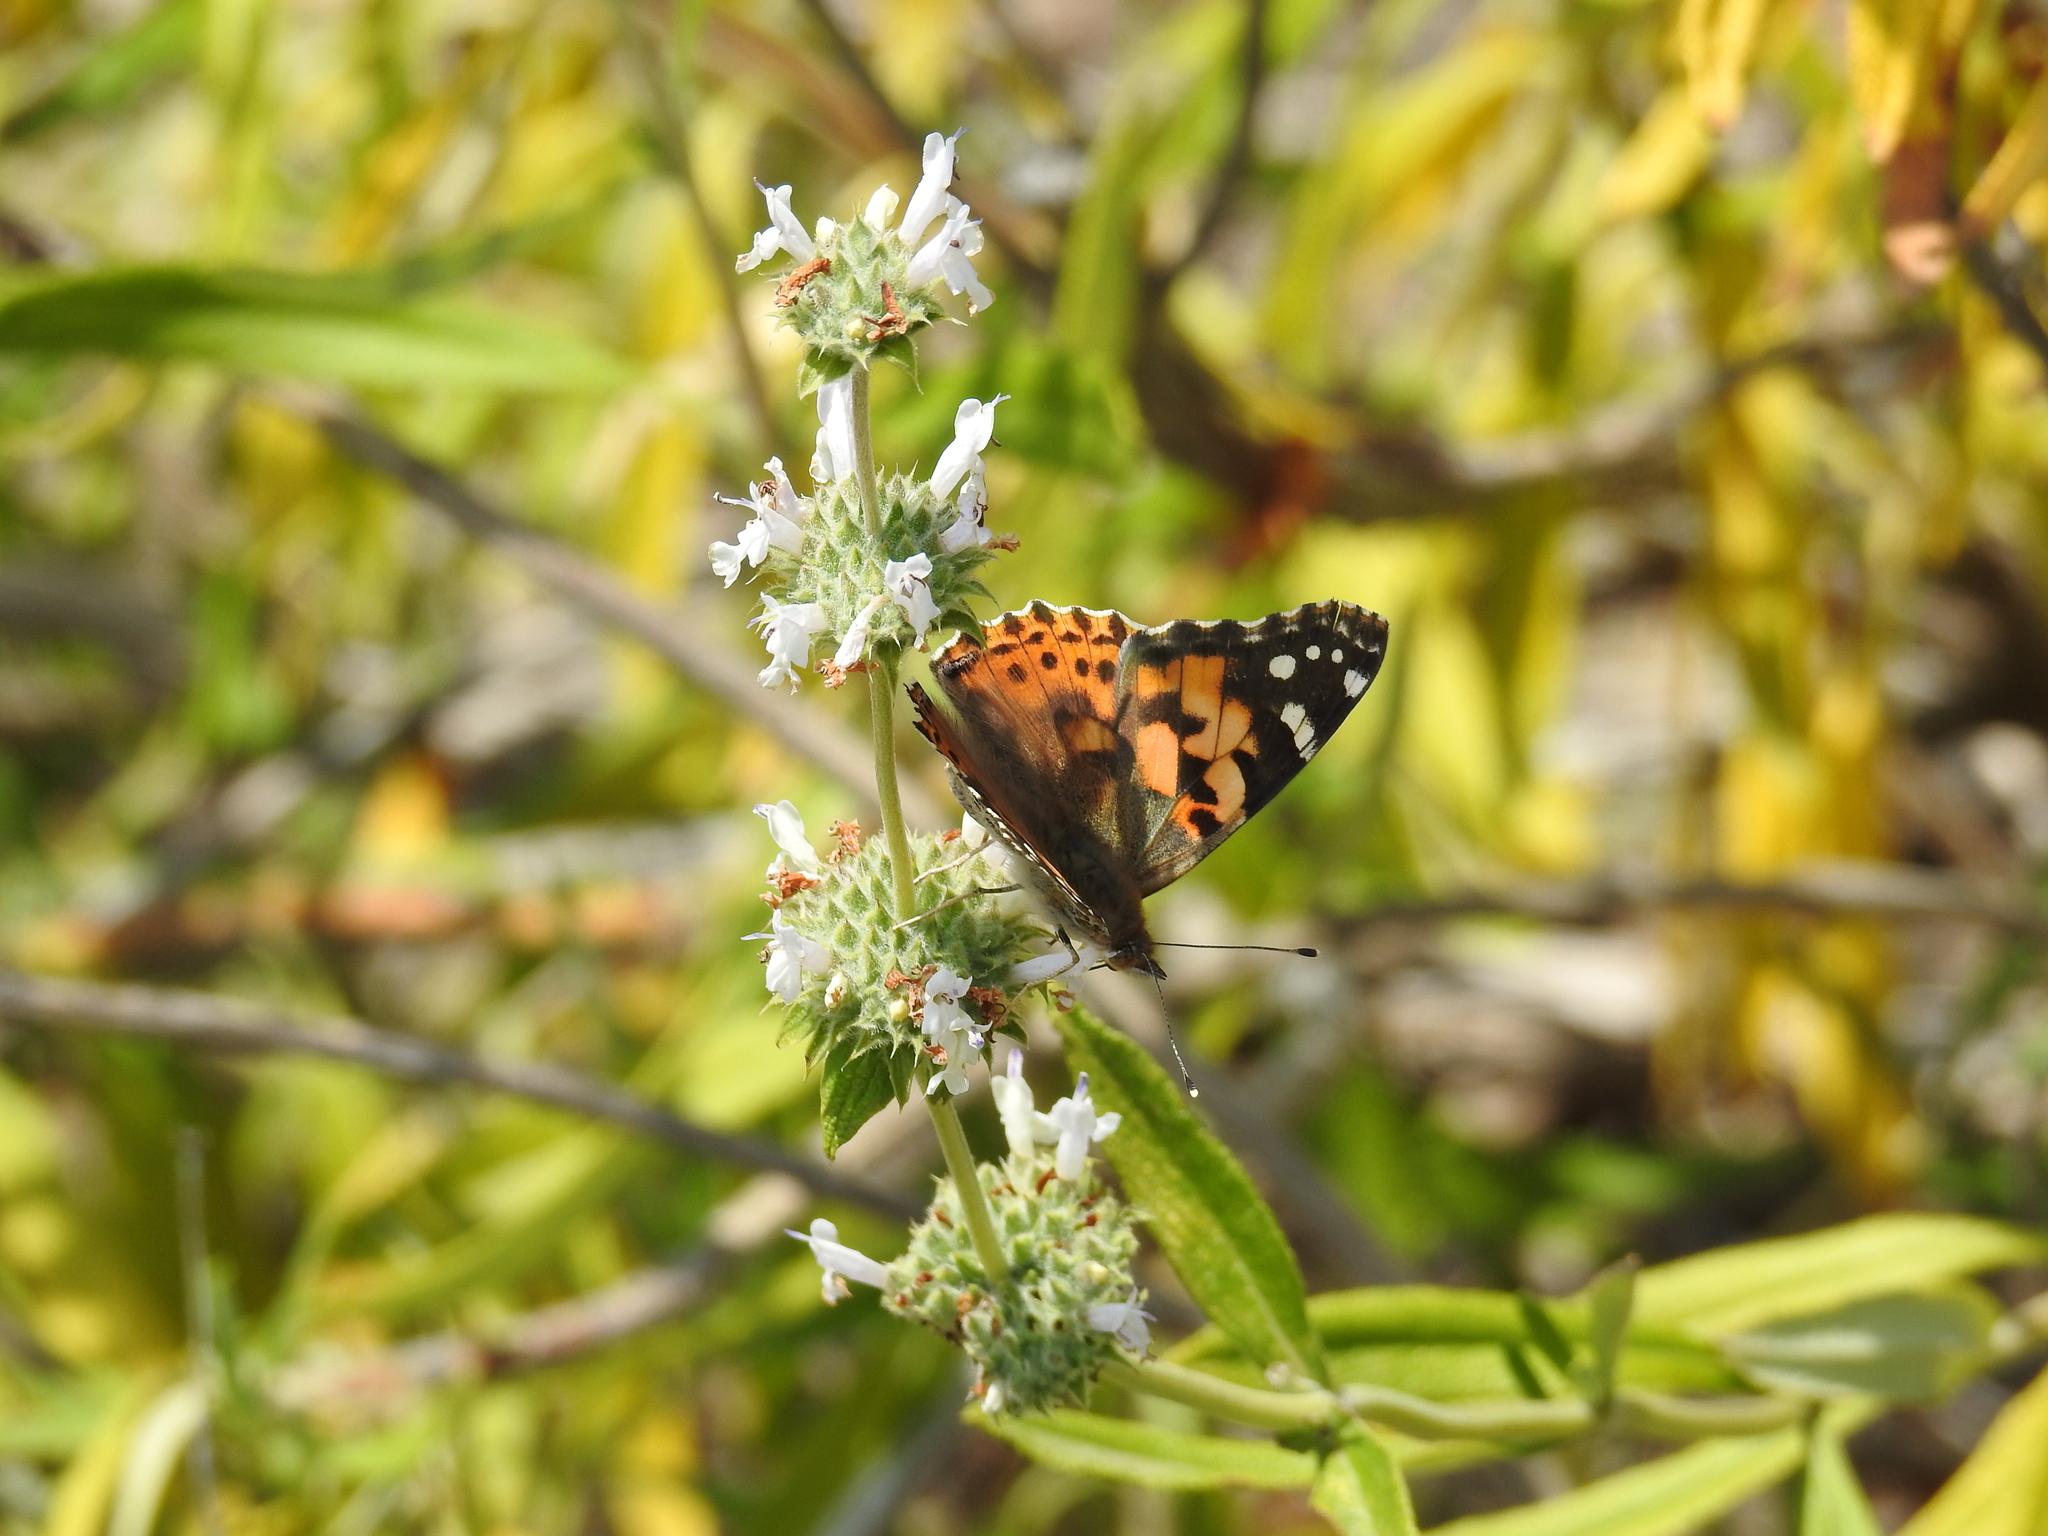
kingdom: Animalia
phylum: Arthropoda
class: Insecta
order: Lepidoptera
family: Nymphalidae
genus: Vanessa
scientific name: Vanessa cardui
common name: Painted lady
